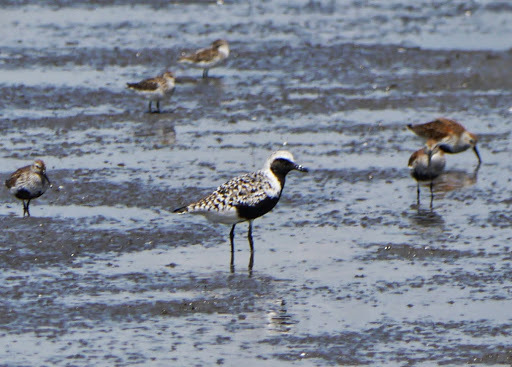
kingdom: Animalia
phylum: Chordata
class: Aves
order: Charadriiformes
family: Charadriidae
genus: Pluvialis
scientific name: Pluvialis squatarola
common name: Grey plover
